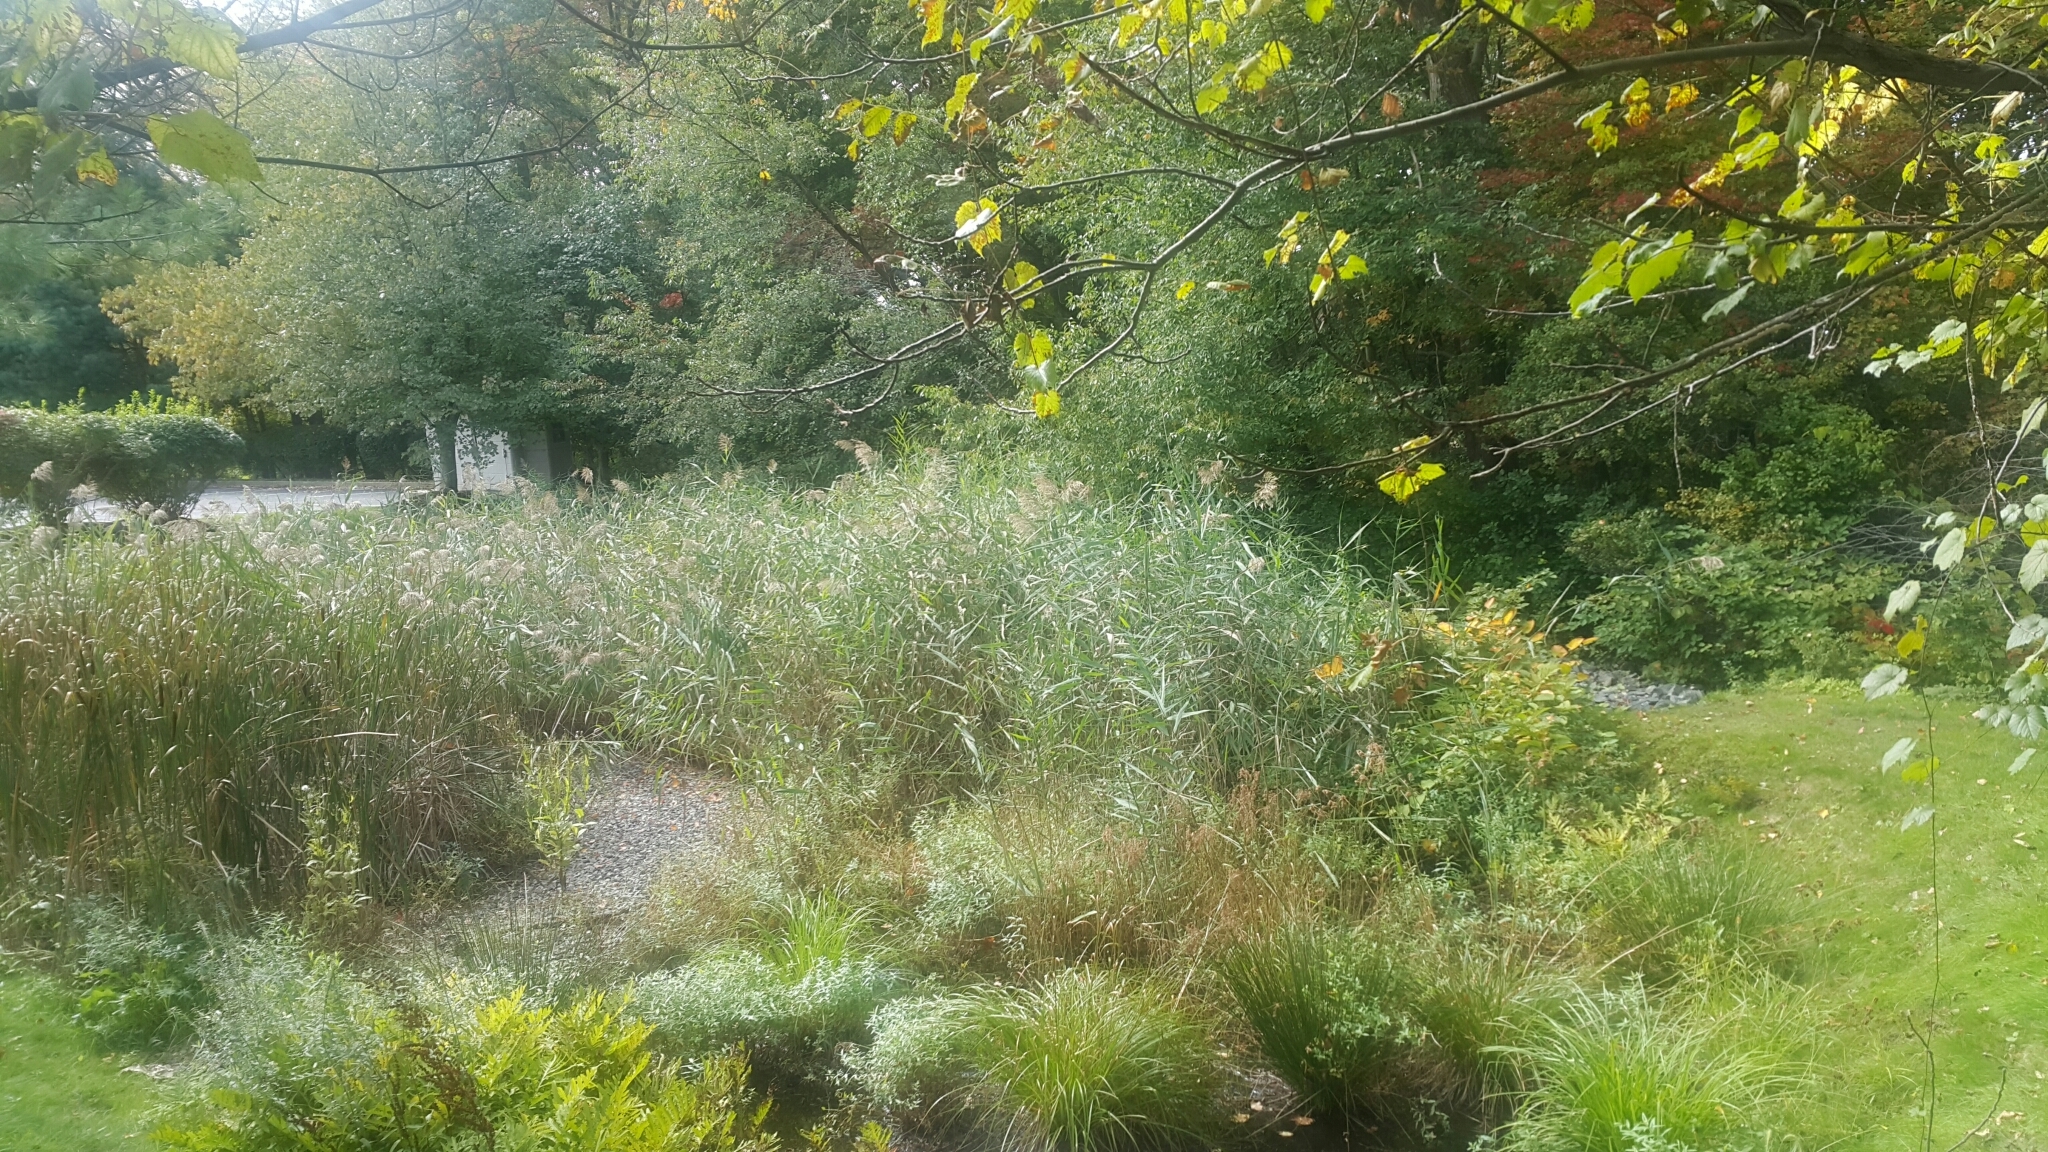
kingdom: Plantae
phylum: Tracheophyta
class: Liliopsida
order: Poales
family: Poaceae
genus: Phragmites
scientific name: Phragmites australis
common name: Common reed
